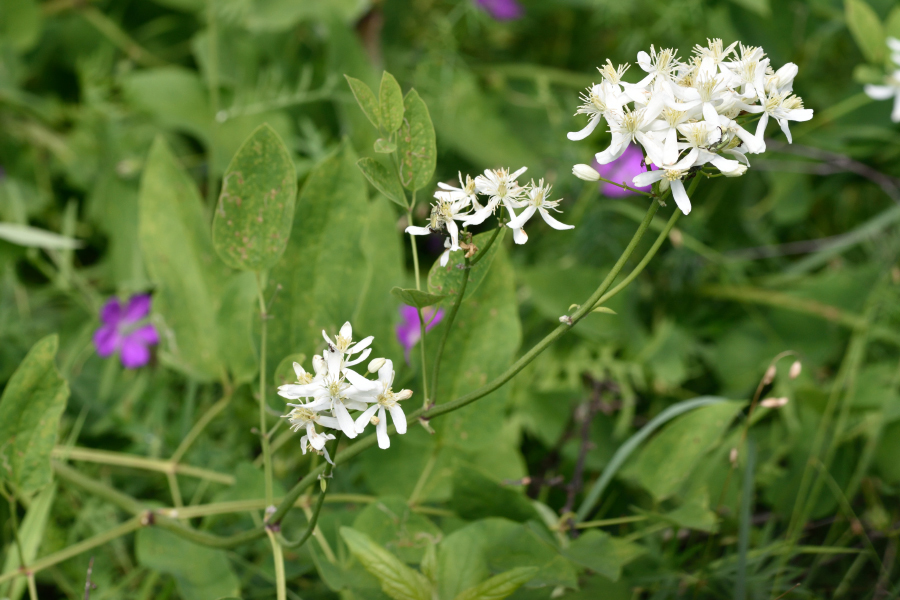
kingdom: Plantae
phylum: Tracheophyta
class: Magnoliopsida
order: Ranunculales
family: Ranunculaceae
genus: Clematis
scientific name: Clematis recta
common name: Ground clematis
